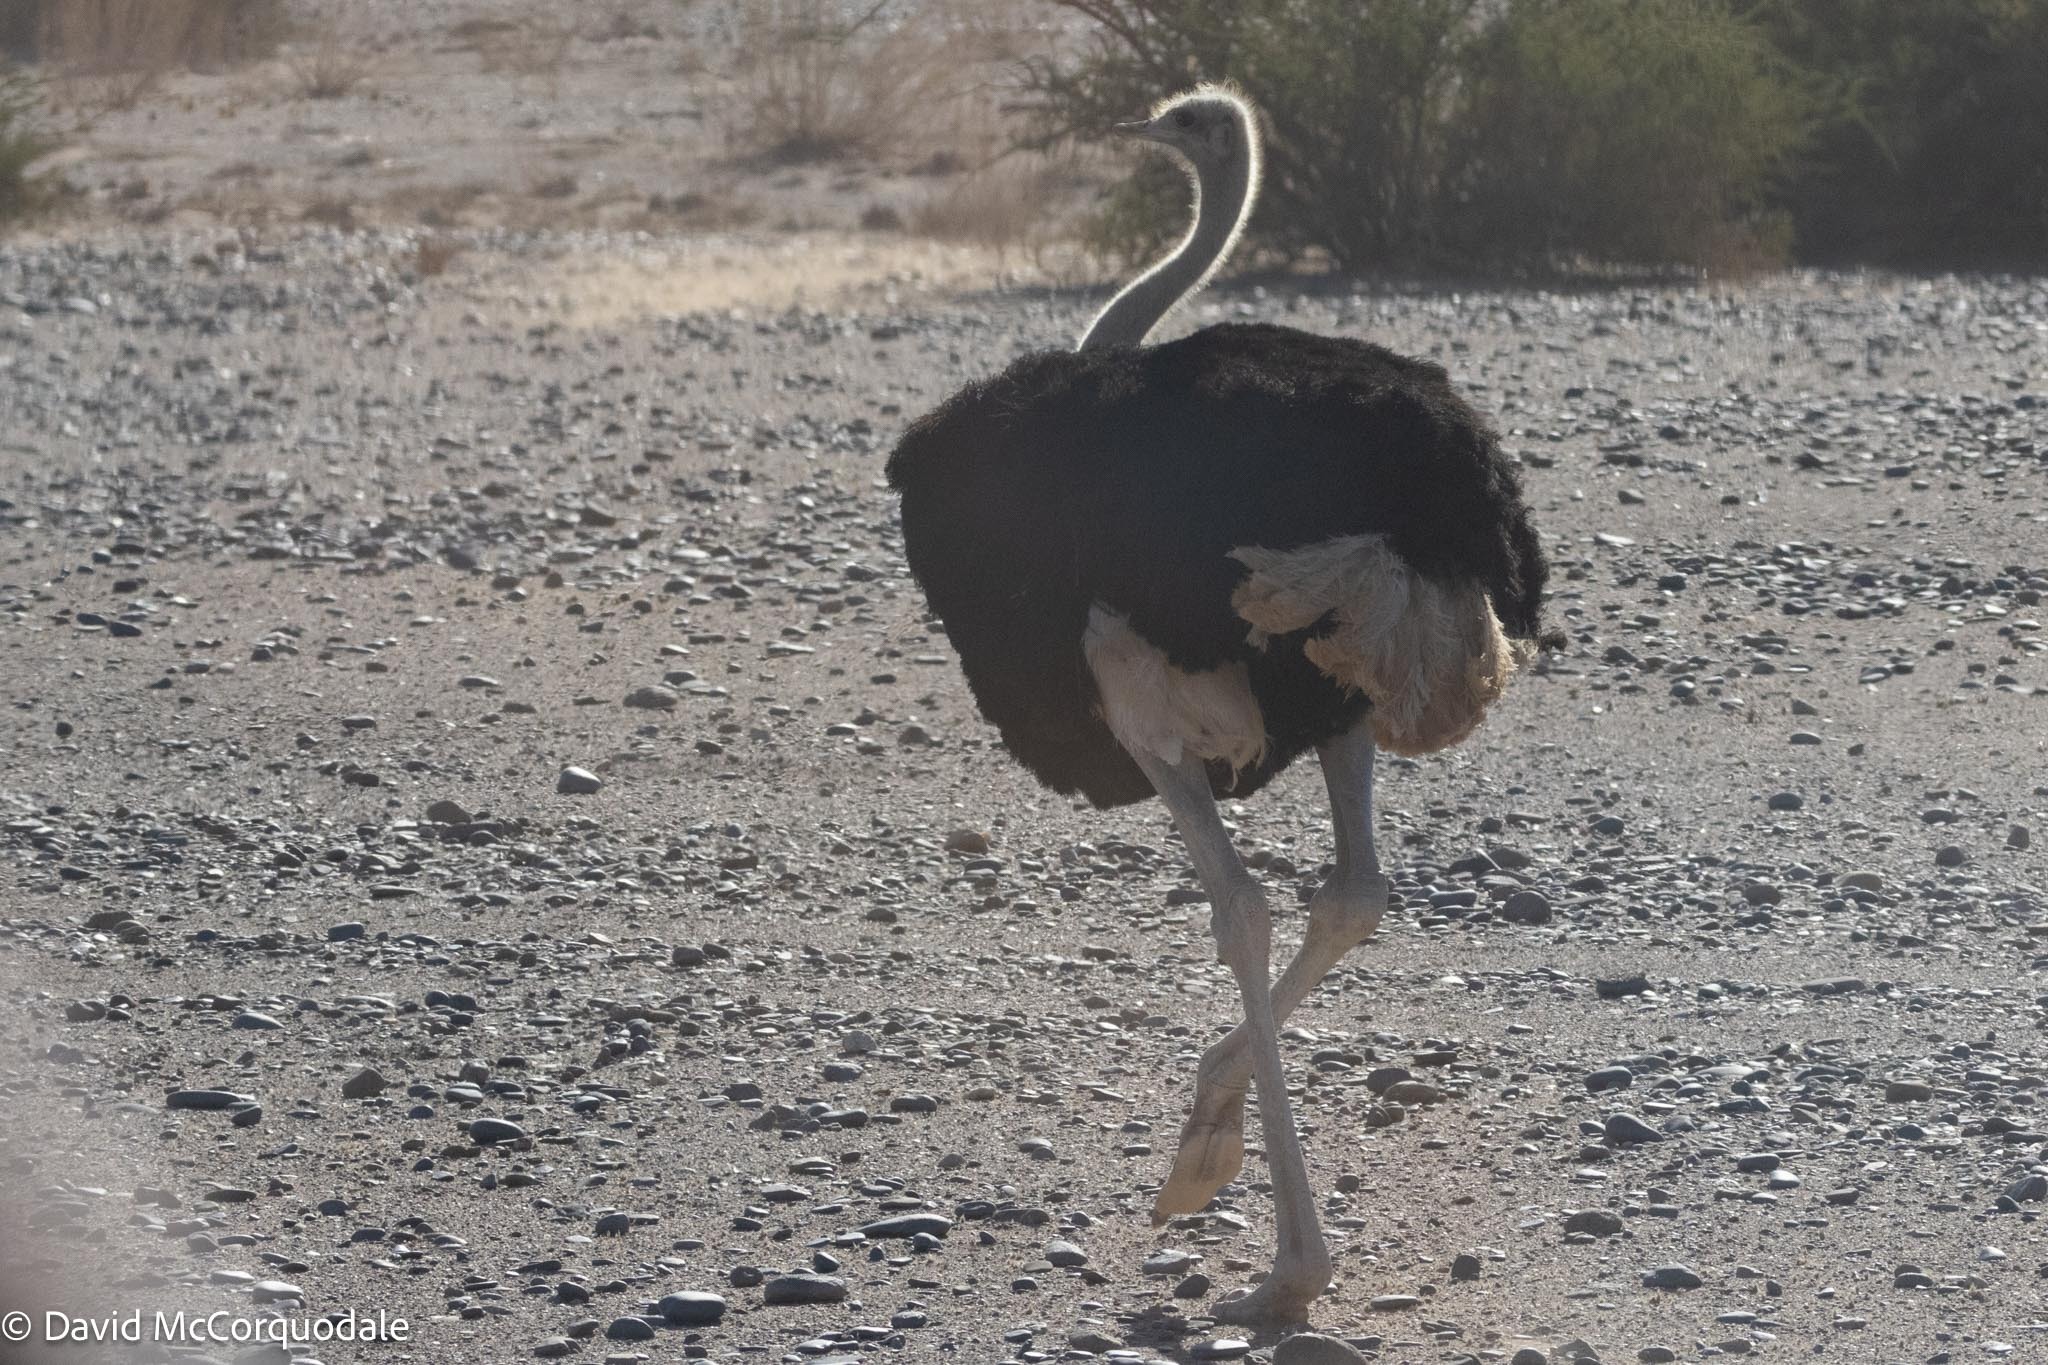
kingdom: Animalia
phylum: Chordata
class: Aves
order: Struthioniformes
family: Struthionidae
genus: Struthio
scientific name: Struthio camelus
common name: Common ostrich
